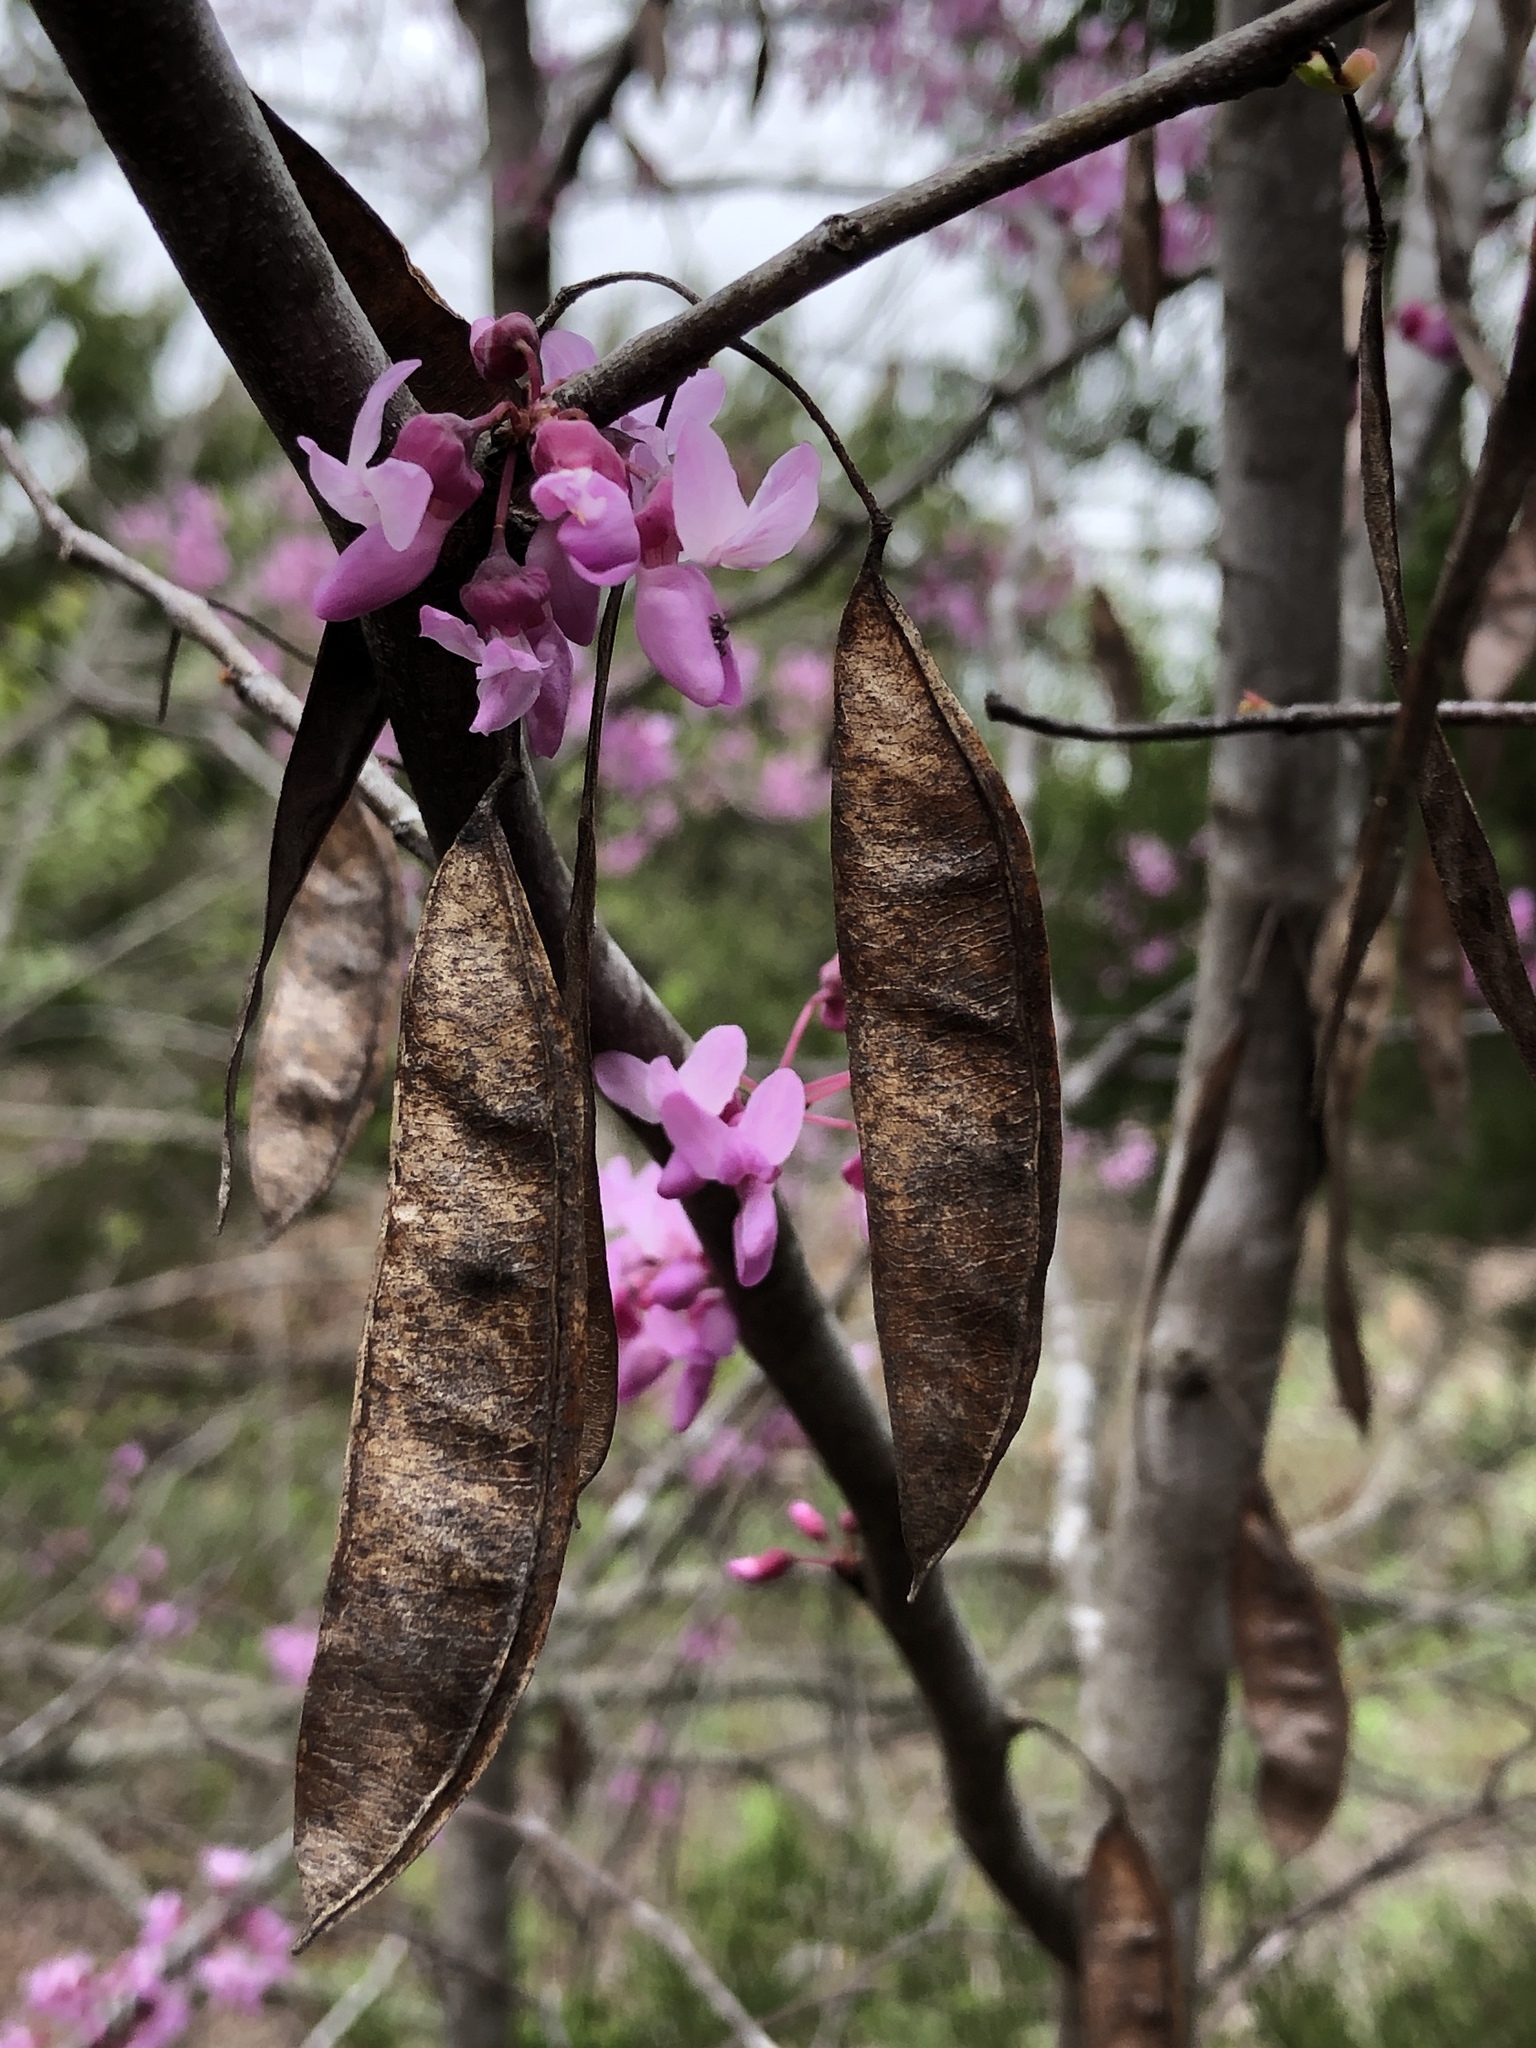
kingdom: Plantae
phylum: Tracheophyta
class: Magnoliopsida
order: Fabales
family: Fabaceae
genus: Cercis
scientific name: Cercis canadensis
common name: Eastern redbud
